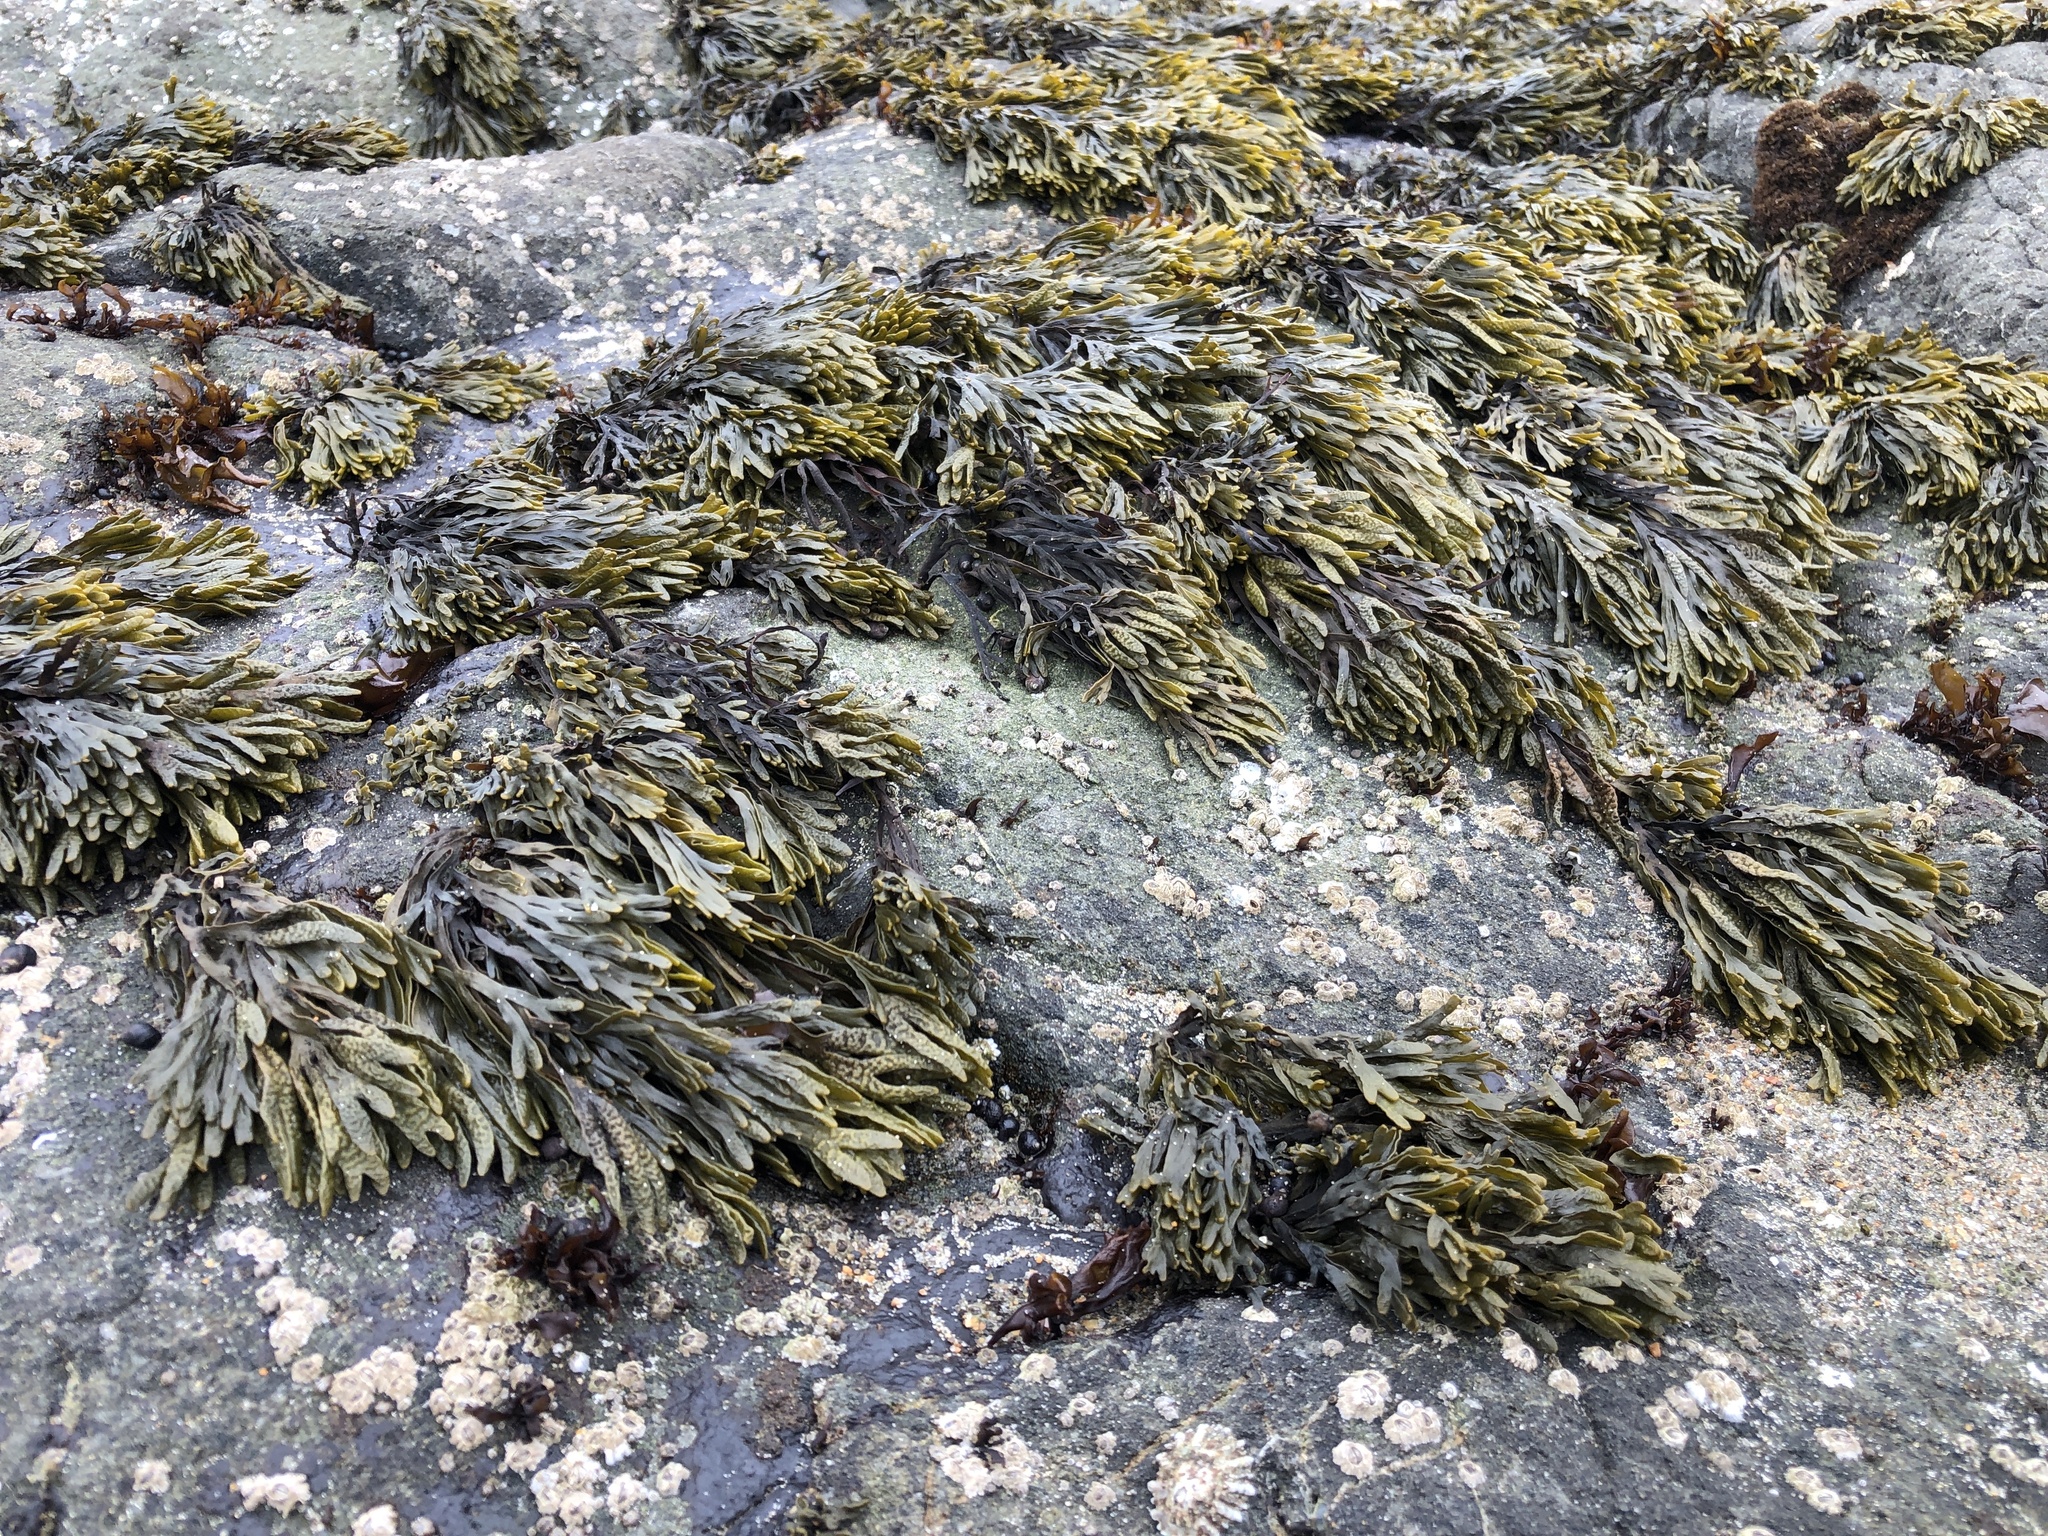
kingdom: Chromista
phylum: Ochrophyta
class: Phaeophyceae
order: Fucales
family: Fucaceae
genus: Pelvetiopsis
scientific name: Pelvetiopsis limitata
